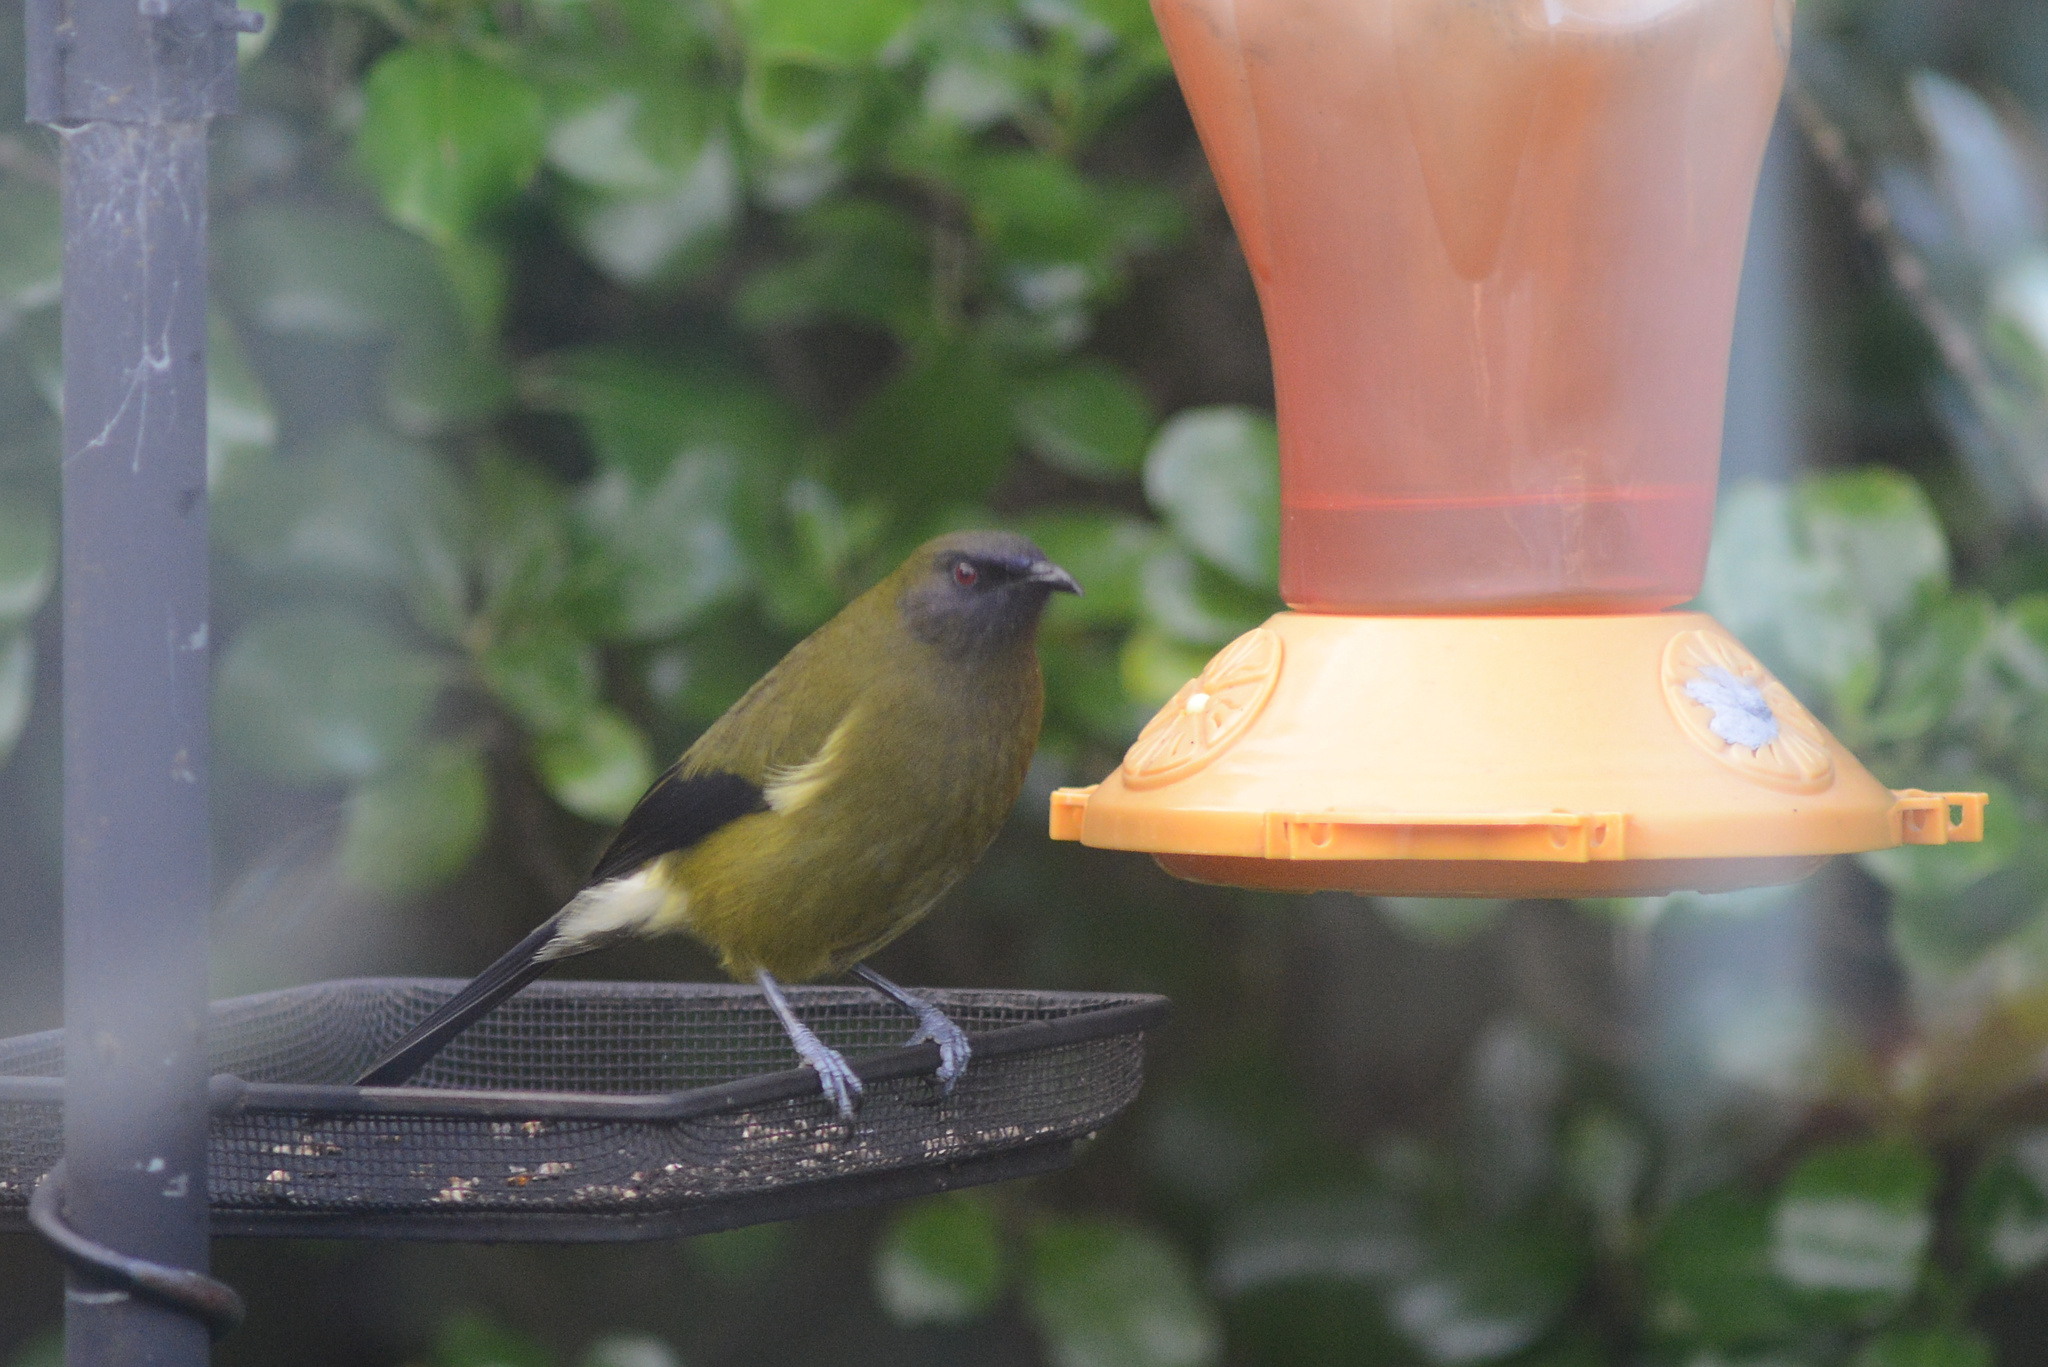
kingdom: Animalia
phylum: Chordata
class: Aves
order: Passeriformes
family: Meliphagidae
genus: Anthornis
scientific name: Anthornis melanura
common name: New zealand bellbird
